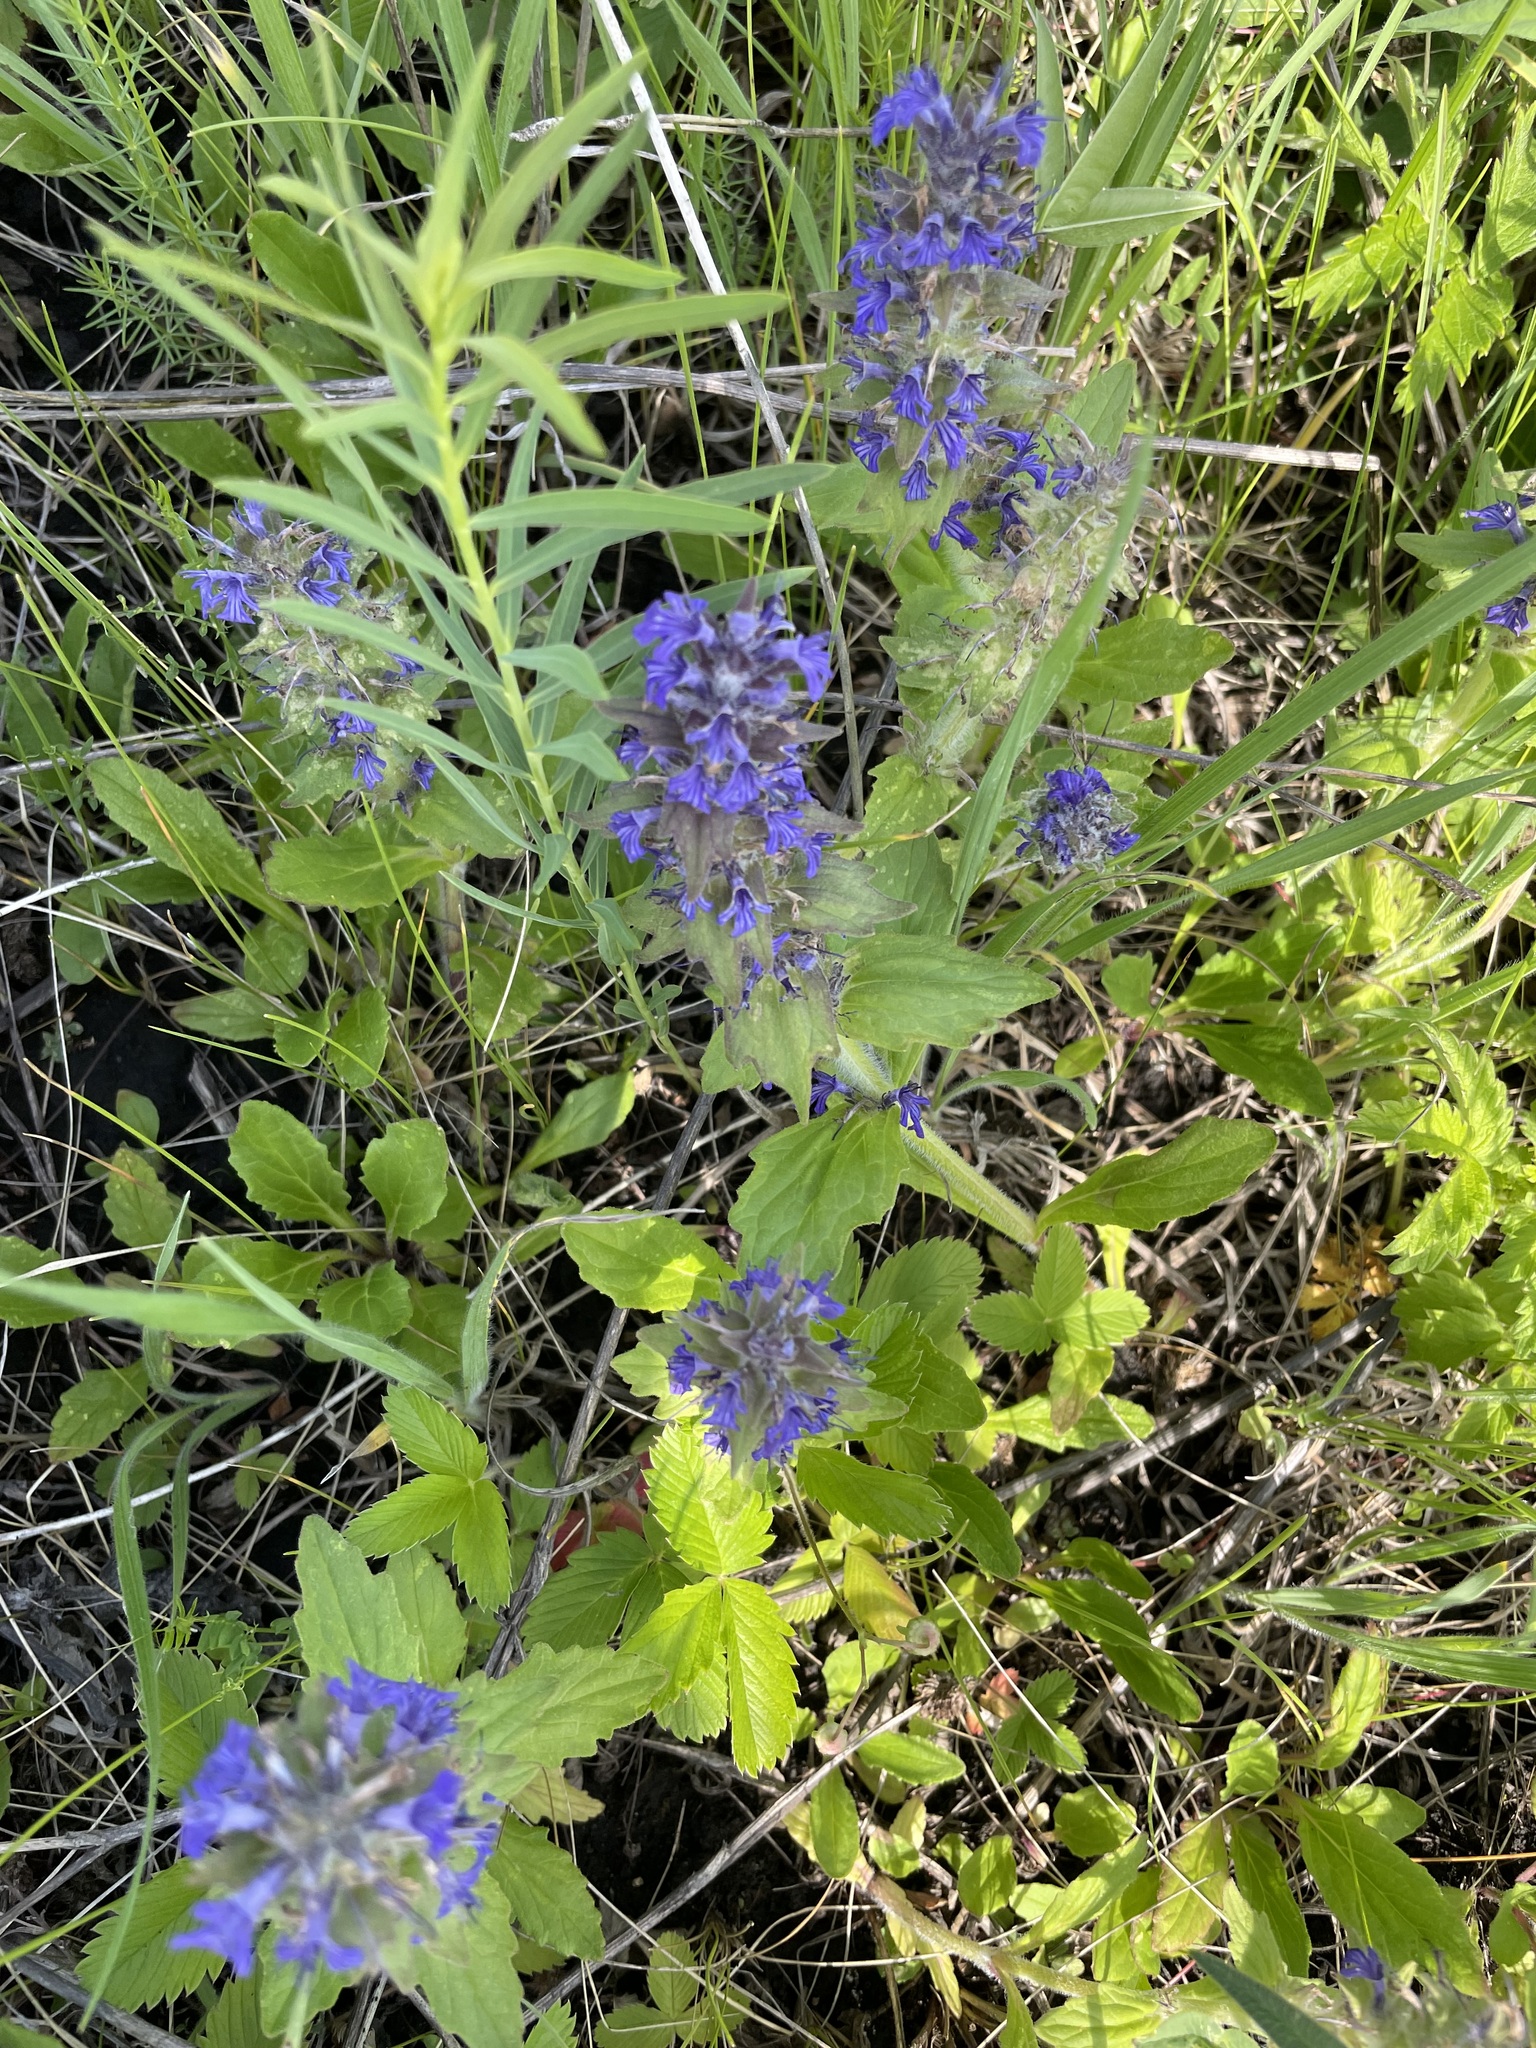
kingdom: Plantae
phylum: Tracheophyta
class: Magnoliopsida
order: Lamiales
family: Lamiaceae
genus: Ajuga
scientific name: Ajuga genevensis
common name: Blue bugle
